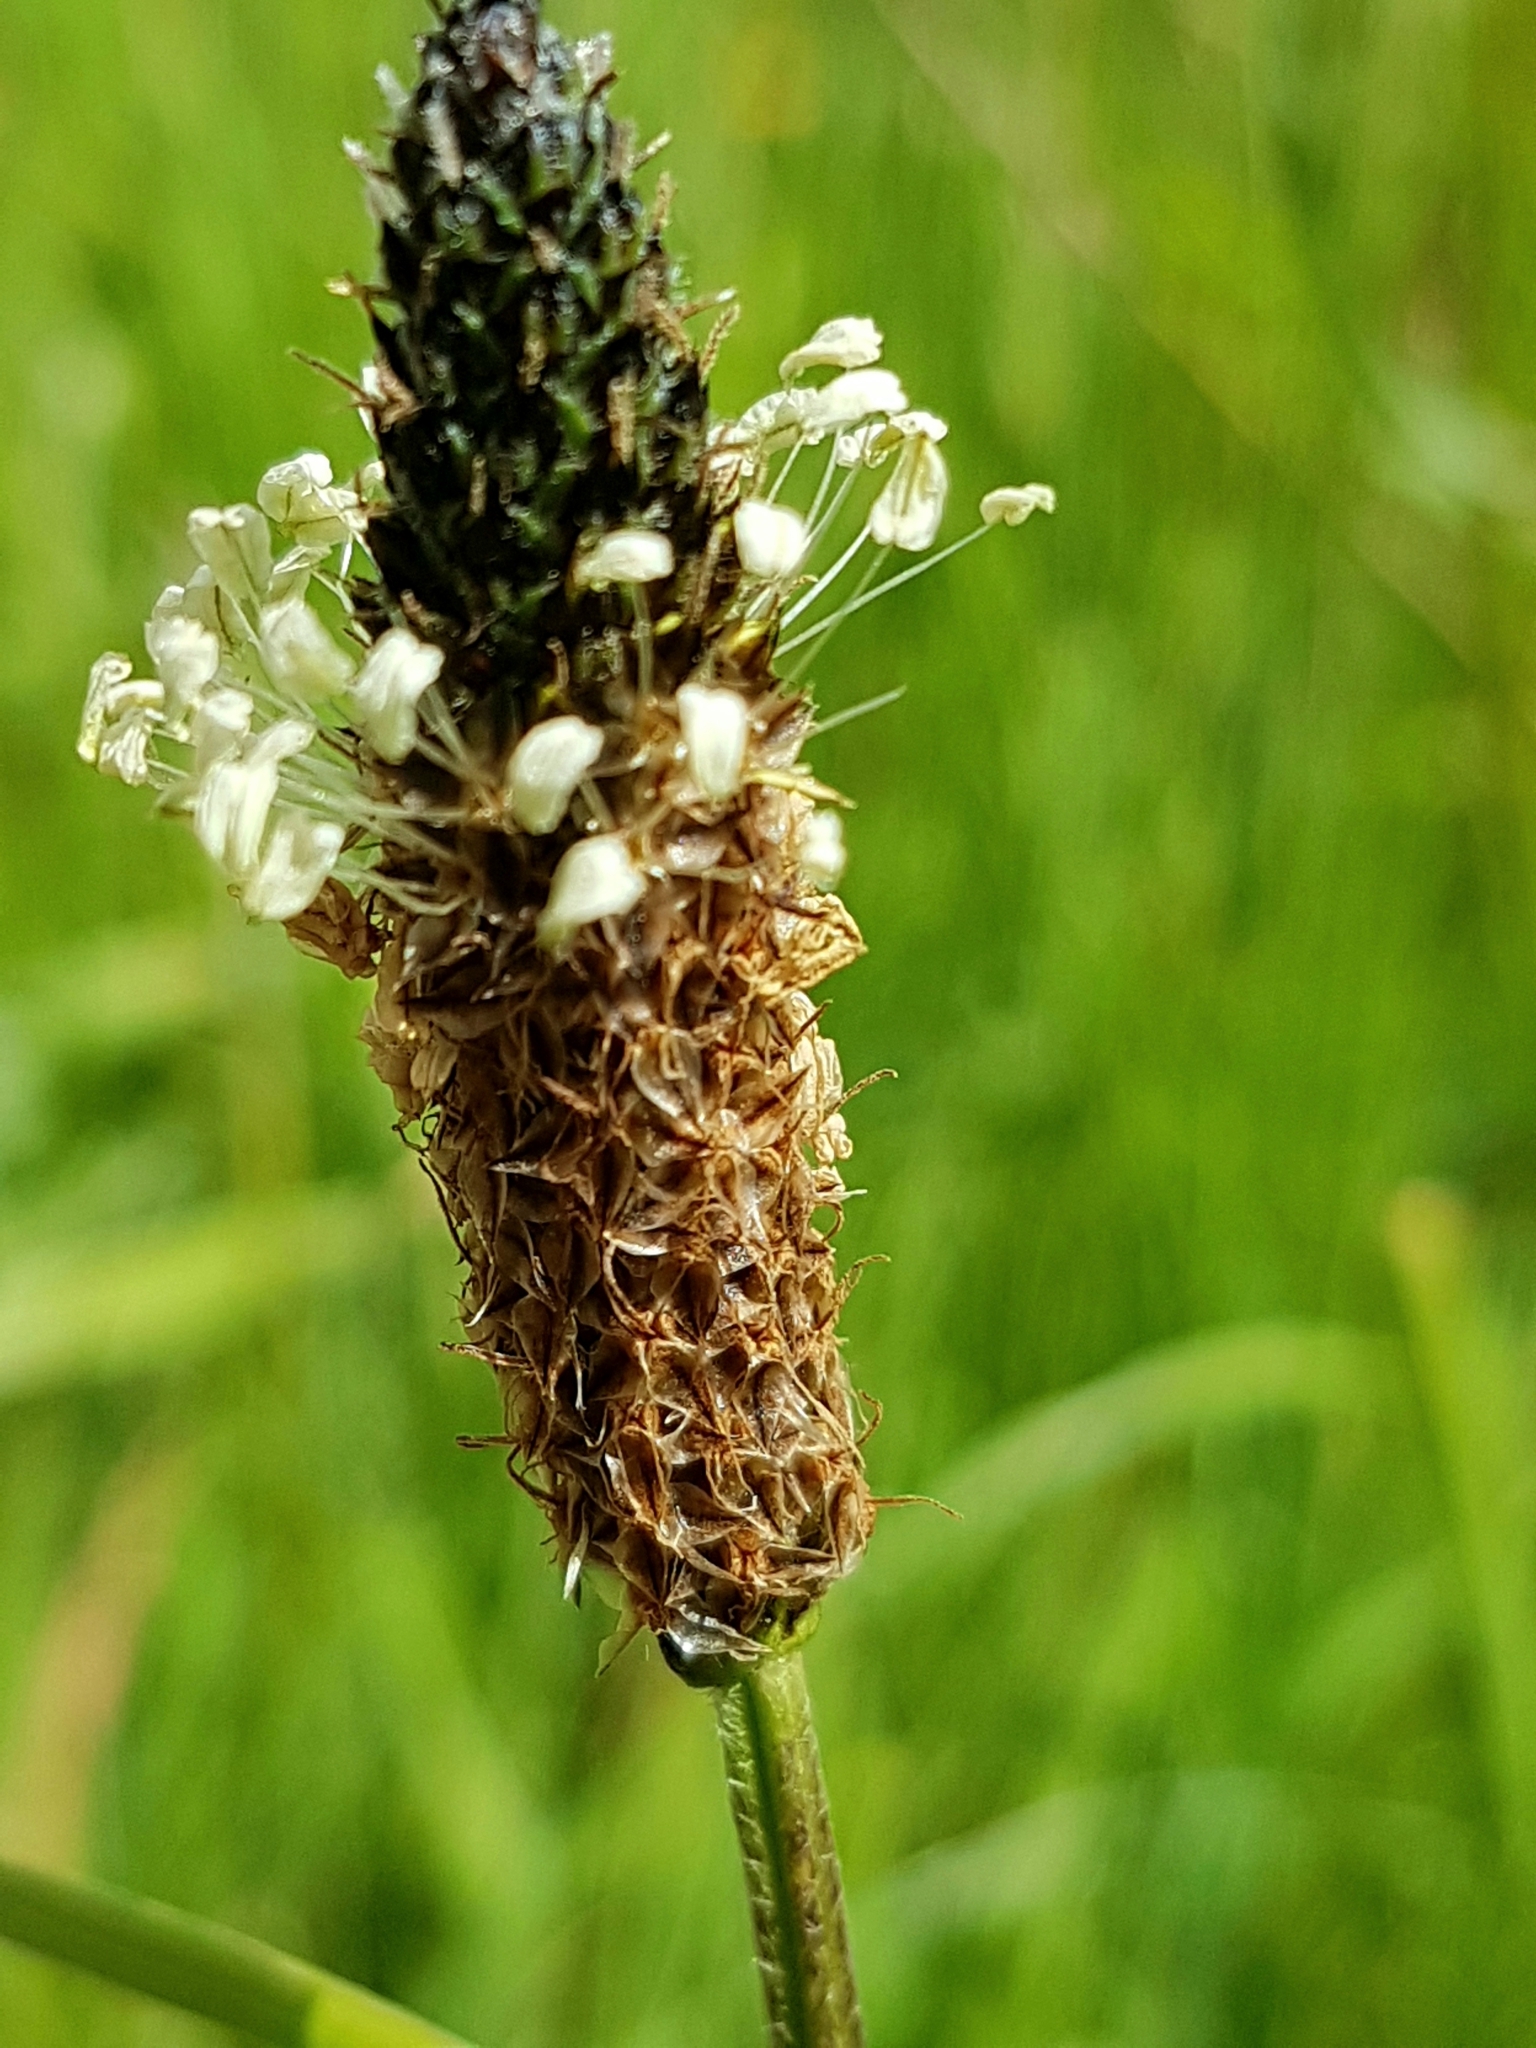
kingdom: Plantae
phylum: Tracheophyta
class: Magnoliopsida
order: Lamiales
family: Plantaginaceae
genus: Plantago
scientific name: Plantago lanceolata
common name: Ribwort plantain
